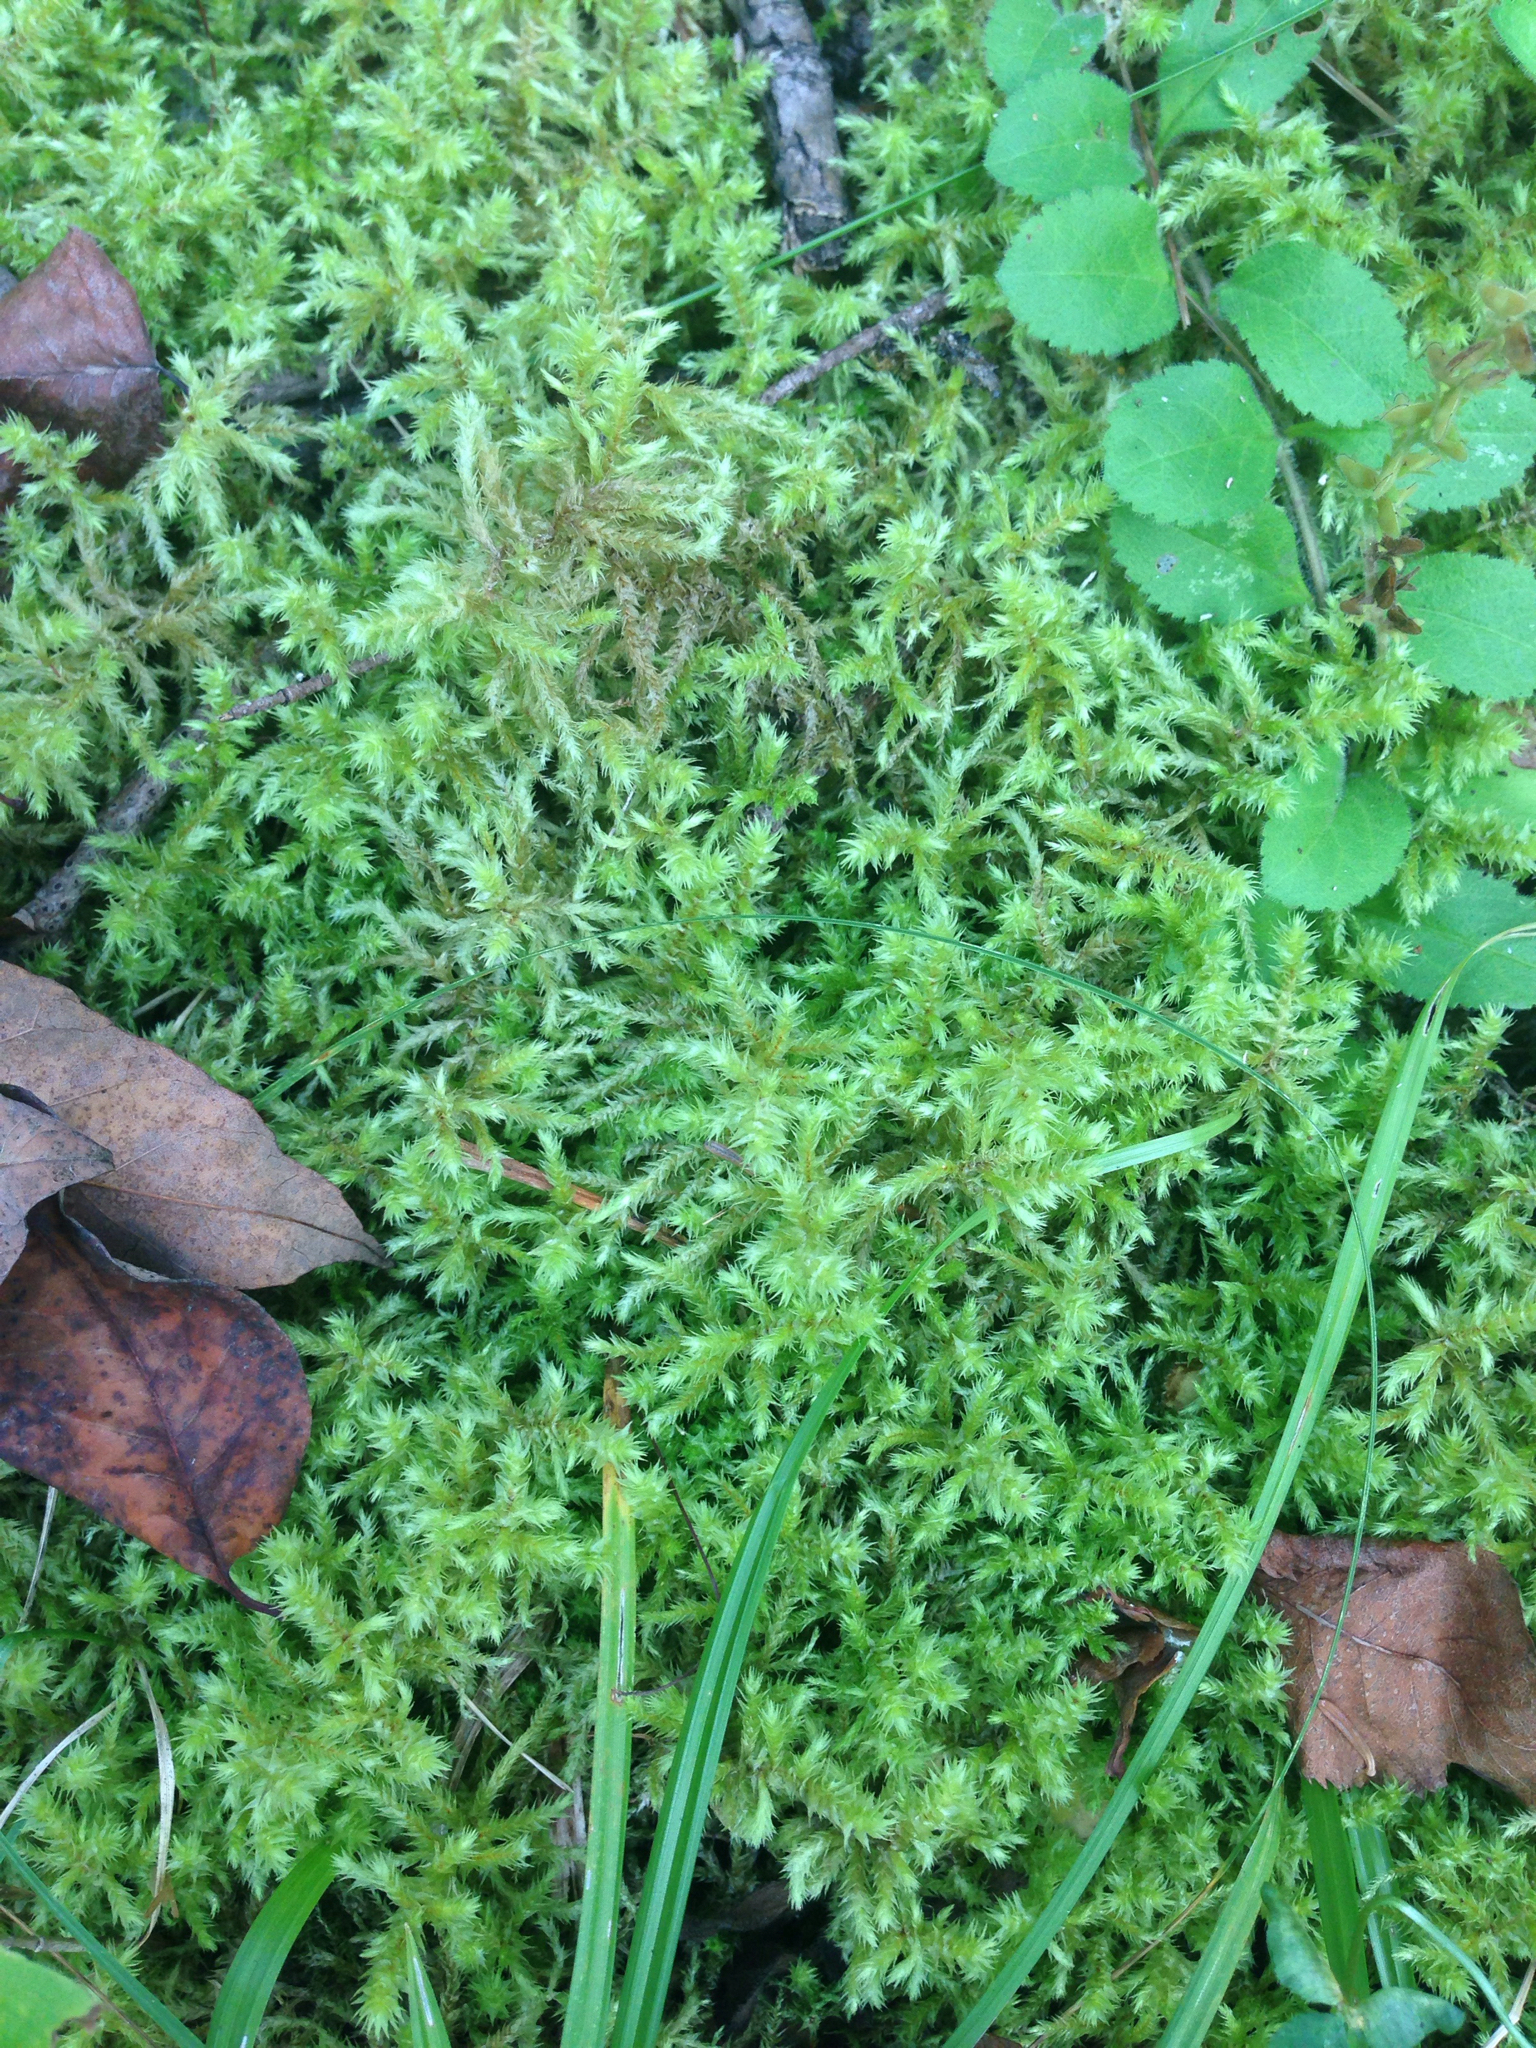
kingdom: Plantae
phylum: Bryophyta
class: Bryopsida
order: Hypnales
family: Hylocomiaceae
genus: Hylocomiadelphus
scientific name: Hylocomiadelphus triquetrus
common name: Rough goose neck moss
